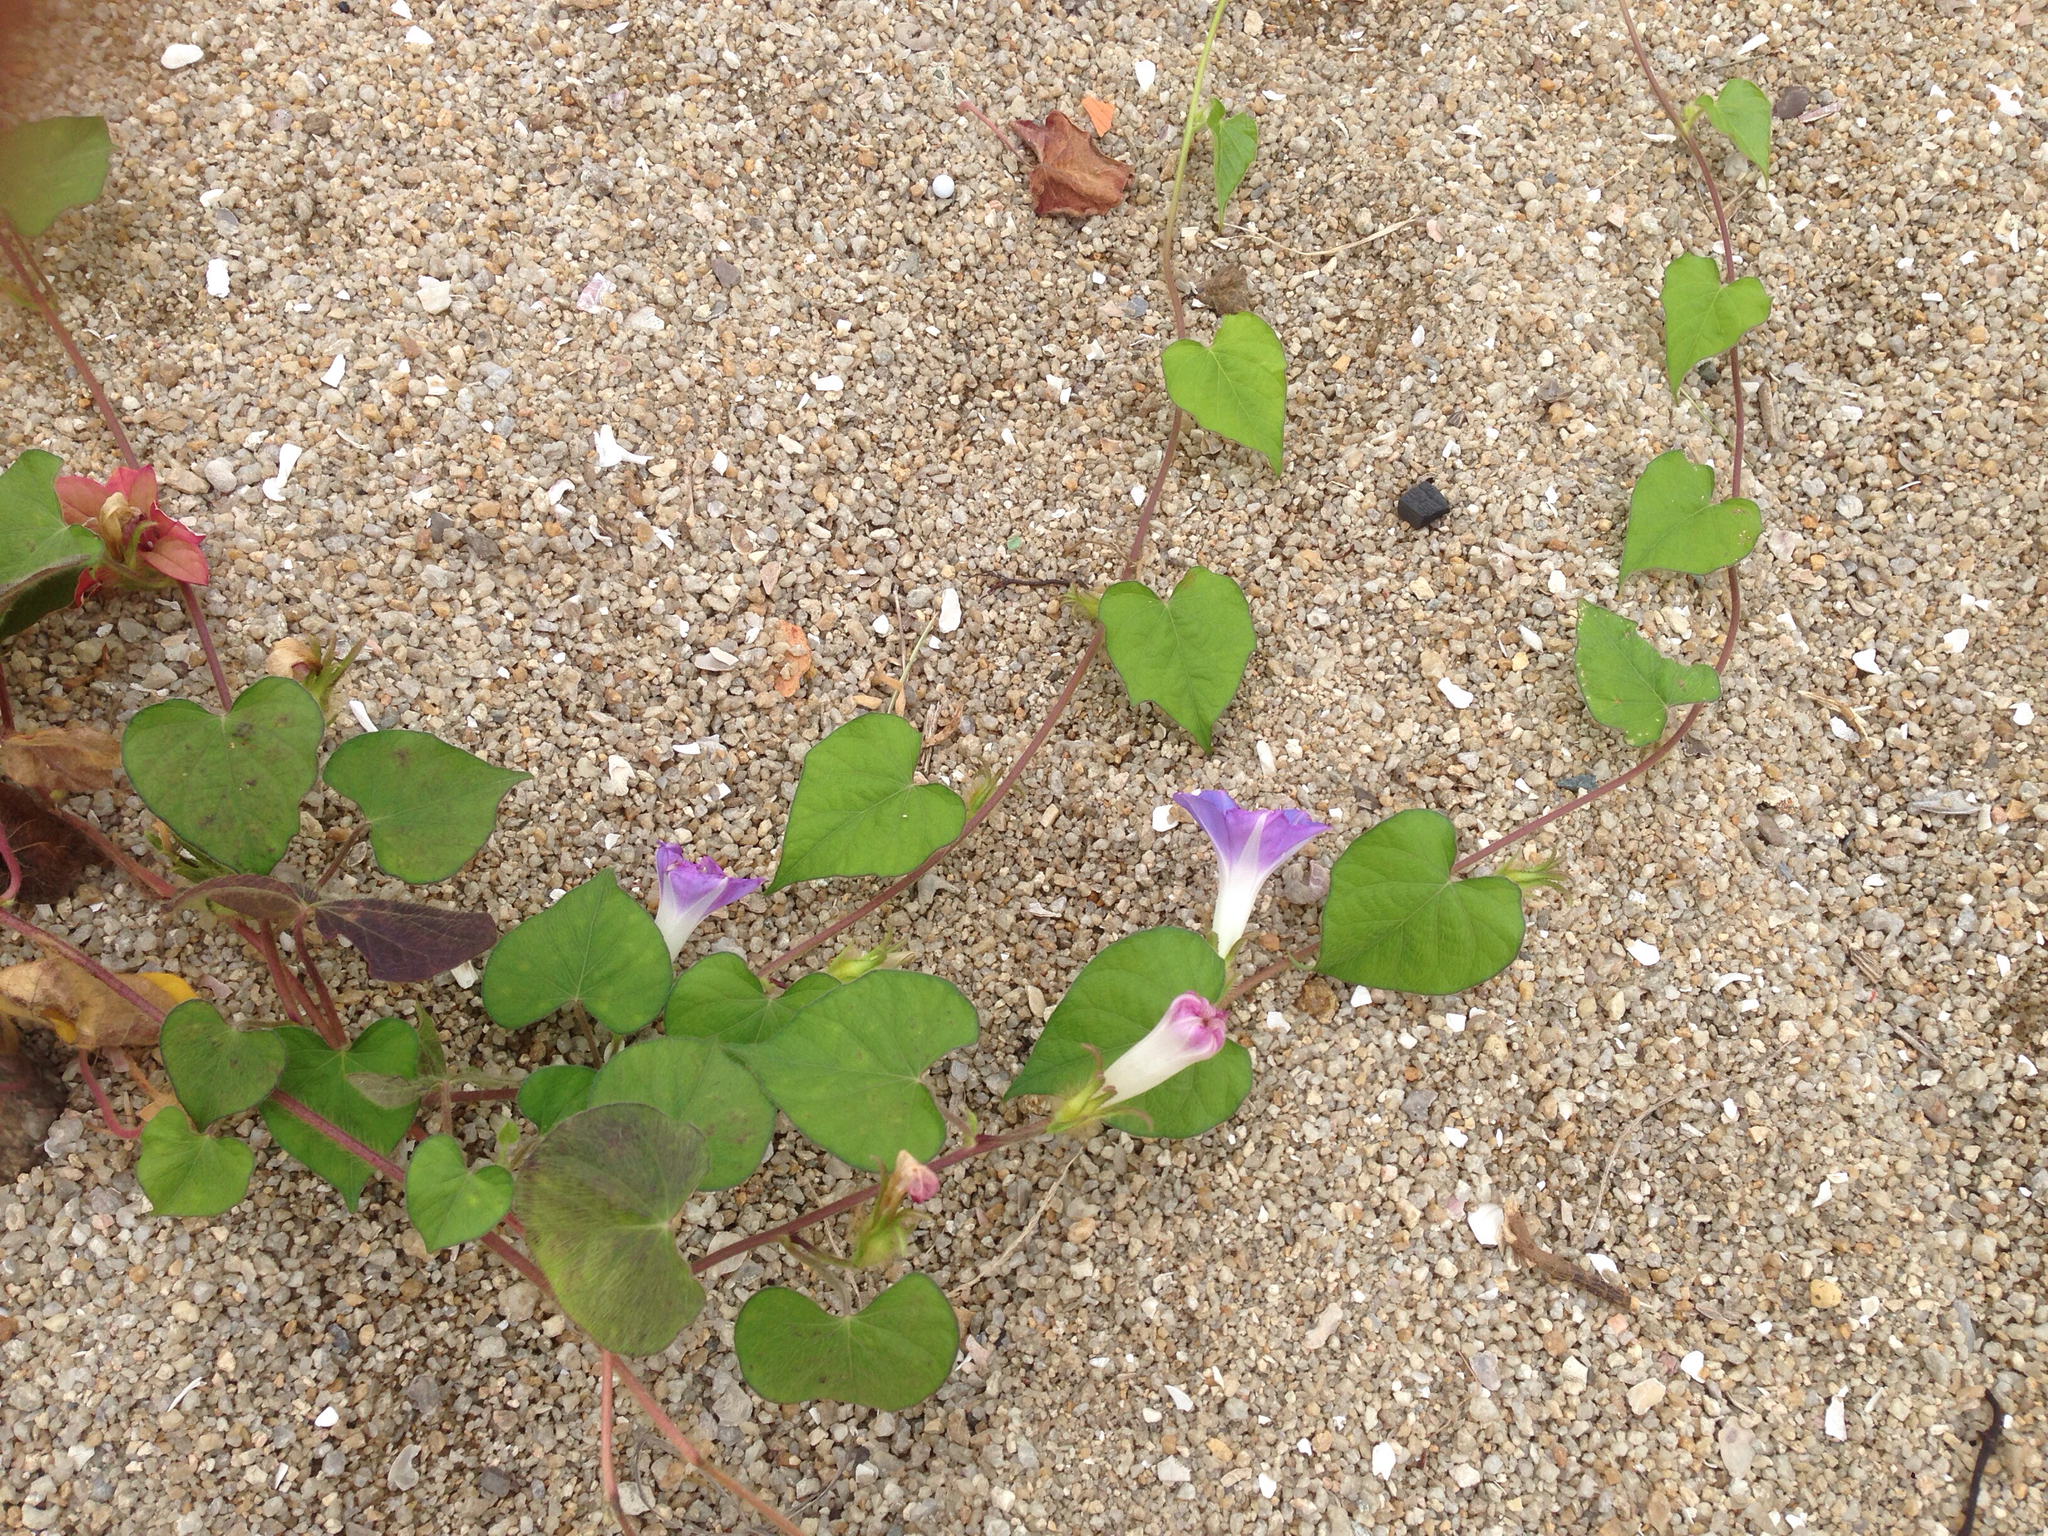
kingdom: Plantae
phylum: Tracheophyta
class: Magnoliopsida
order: Solanales
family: Convolvulaceae
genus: Ipomoea
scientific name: Ipomoea hederacea
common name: Ivy-leaved morning-glory
